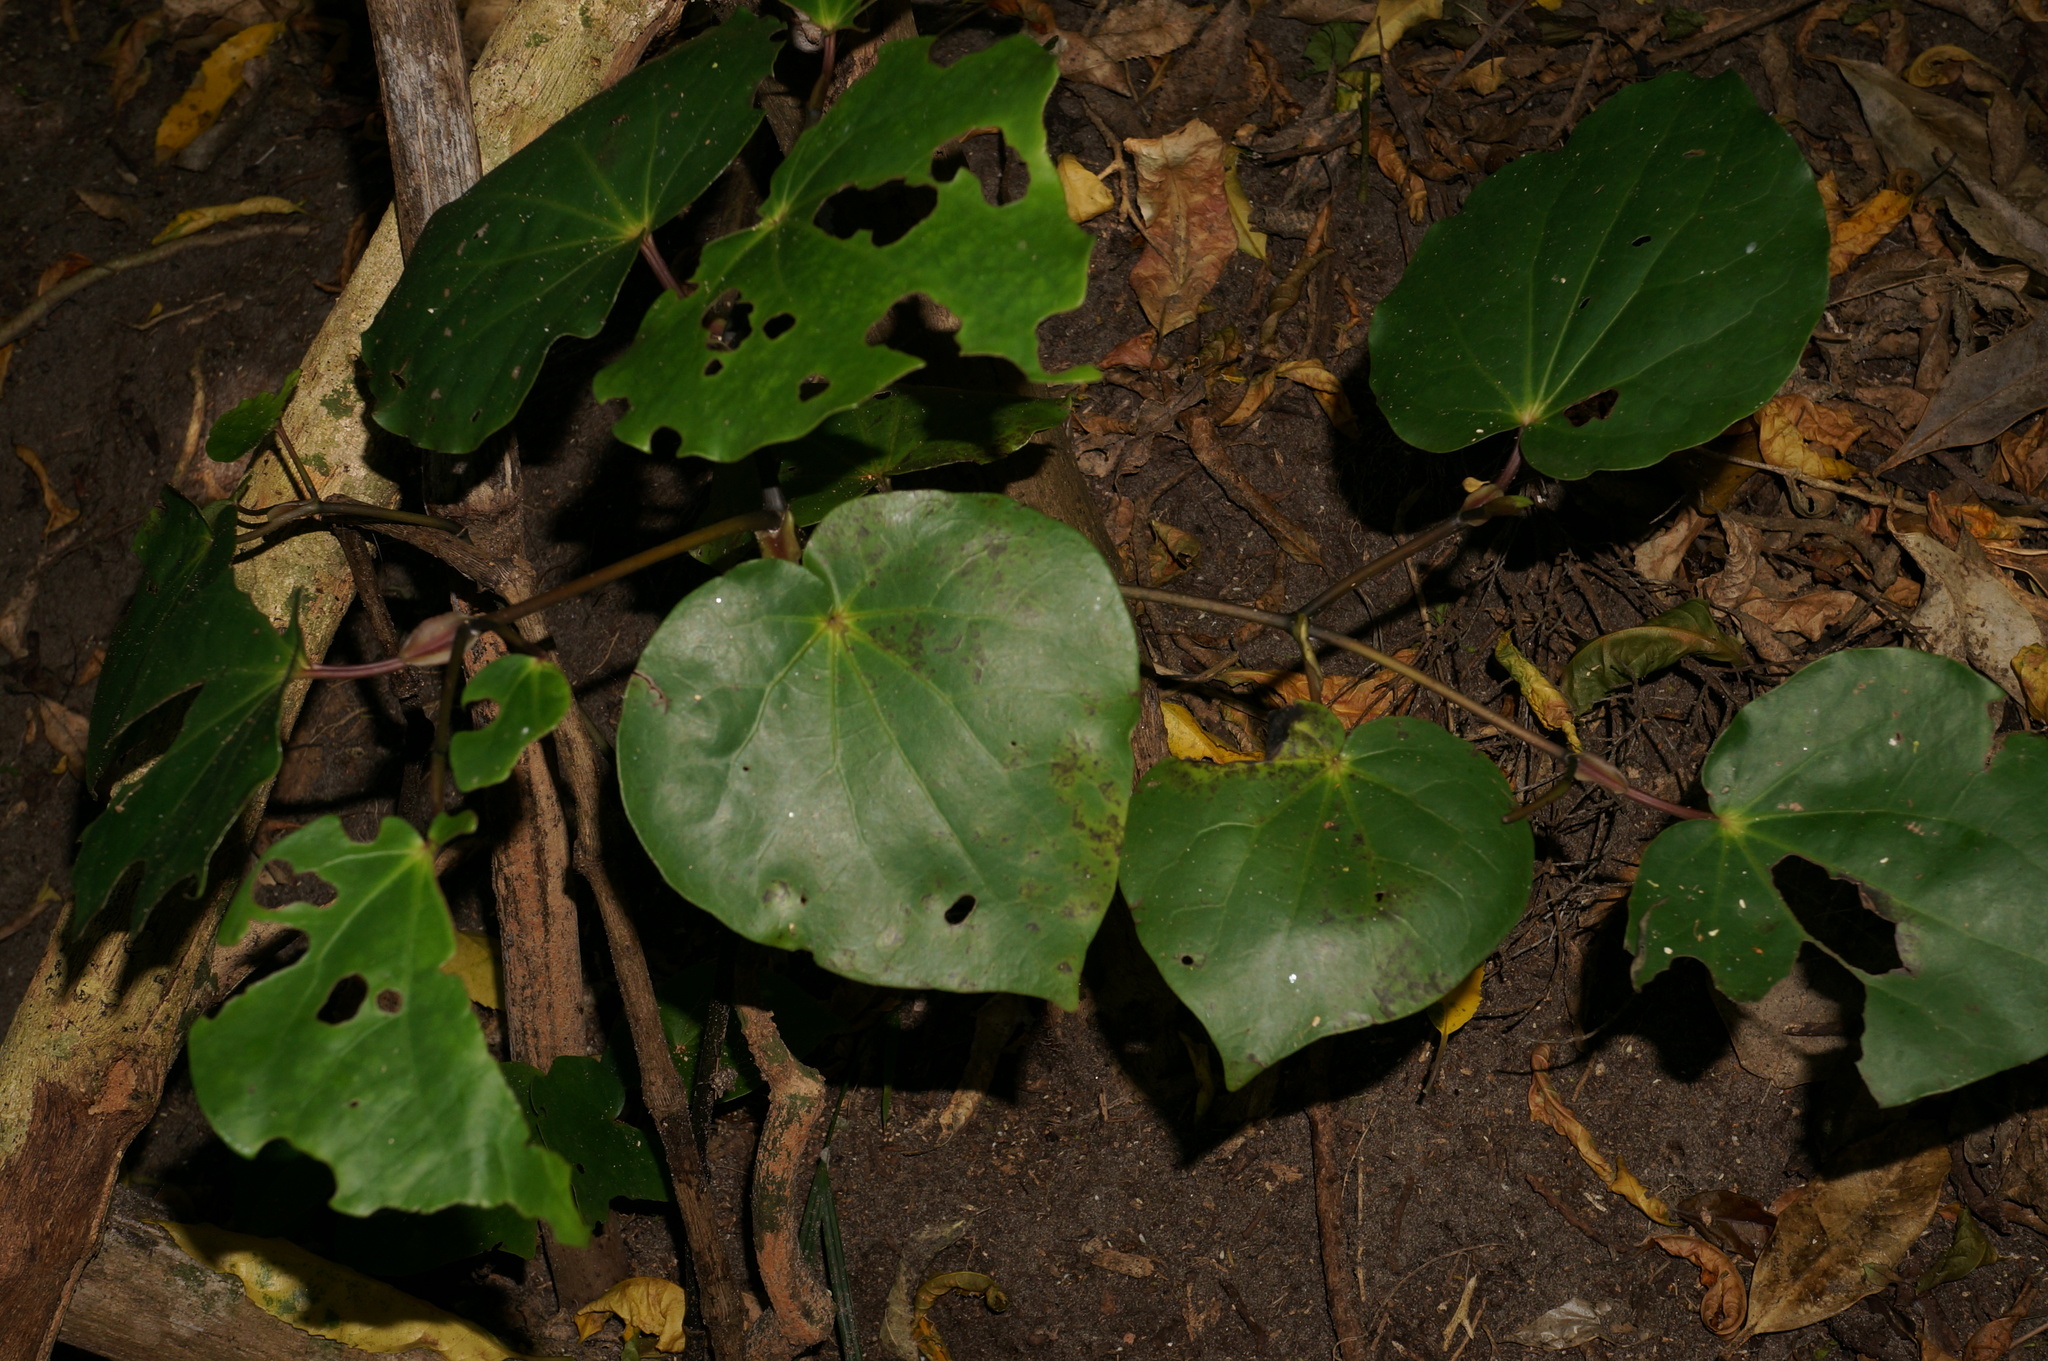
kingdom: Plantae
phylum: Tracheophyta
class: Magnoliopsida
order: Piperales
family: Piperaceae
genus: Macropiper
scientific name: Macropiper excelsum
